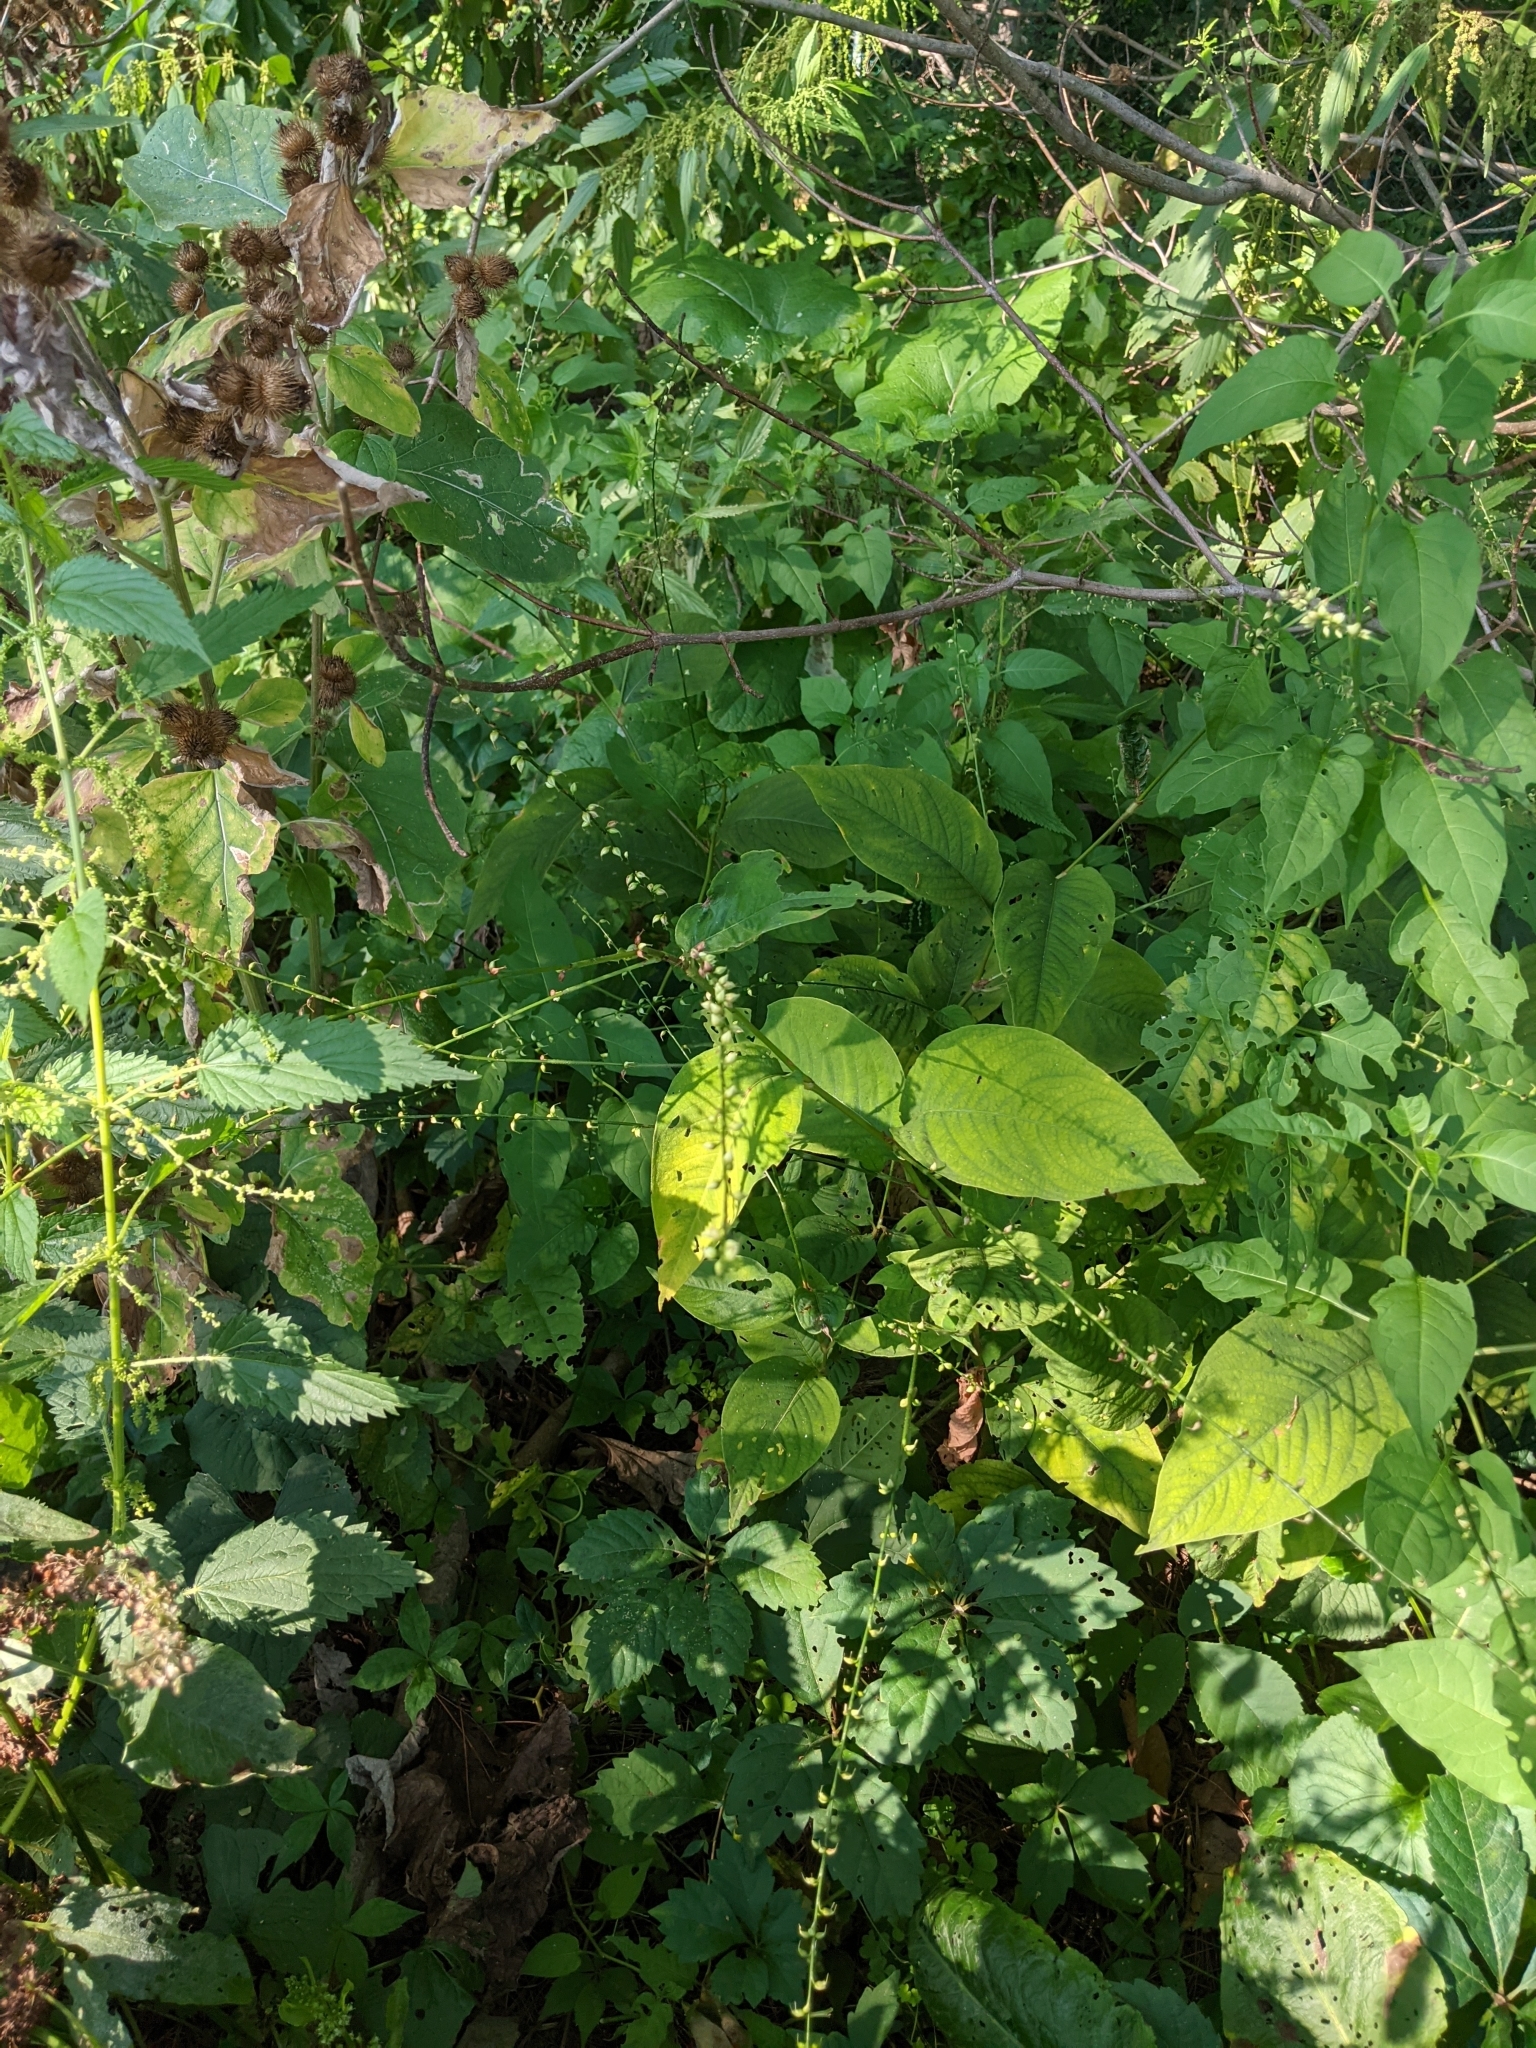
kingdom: Plantae
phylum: Tracheophyta
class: Magnoliopsida
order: Caryophyllales
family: Polygonaceae
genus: Persicaria
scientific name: Persicaria virginiana
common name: Jumpseed
